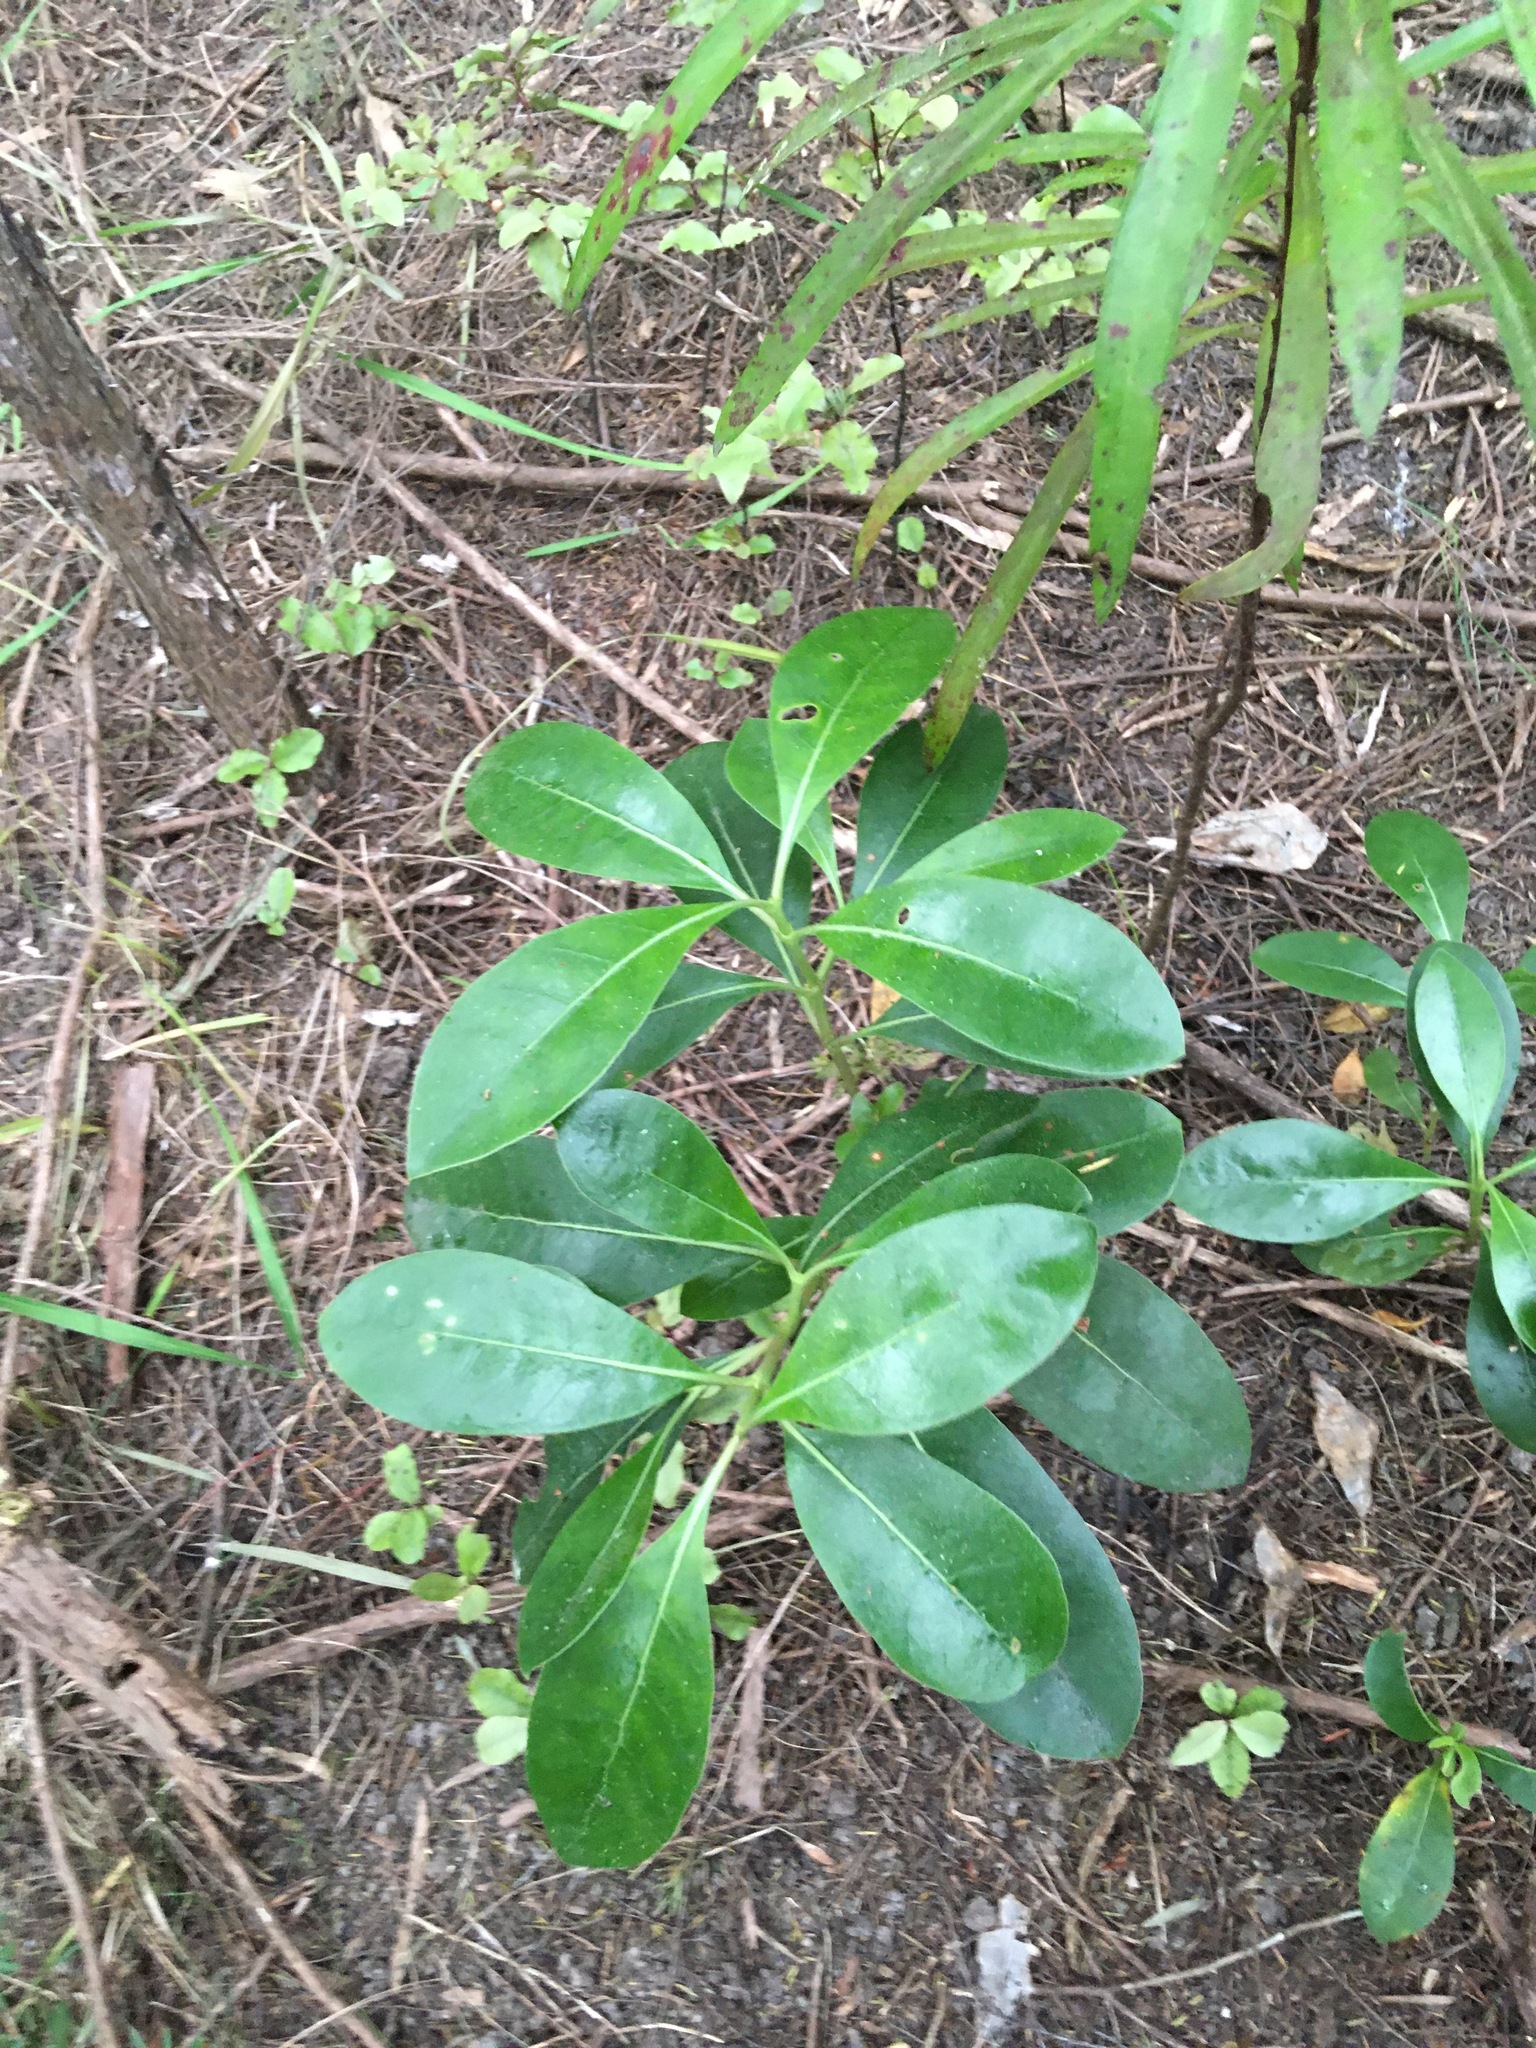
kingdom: Plantae
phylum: Tracheophyta
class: Magnoliopsida
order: Gentianales
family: Rubiaceae
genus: Coprosma
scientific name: Coprosma lucida
